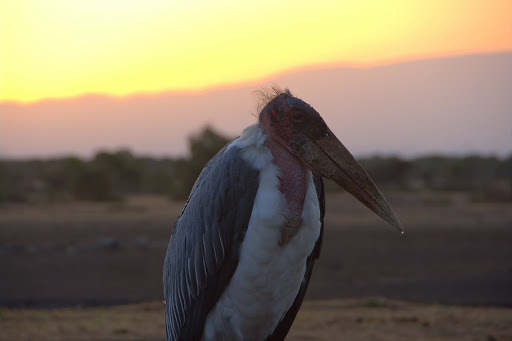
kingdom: Animalia
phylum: Chordata
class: Aves
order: Ciconiiformes
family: Ciconiidae
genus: Leptoptilos
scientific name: Leptoptilos crumenifer
